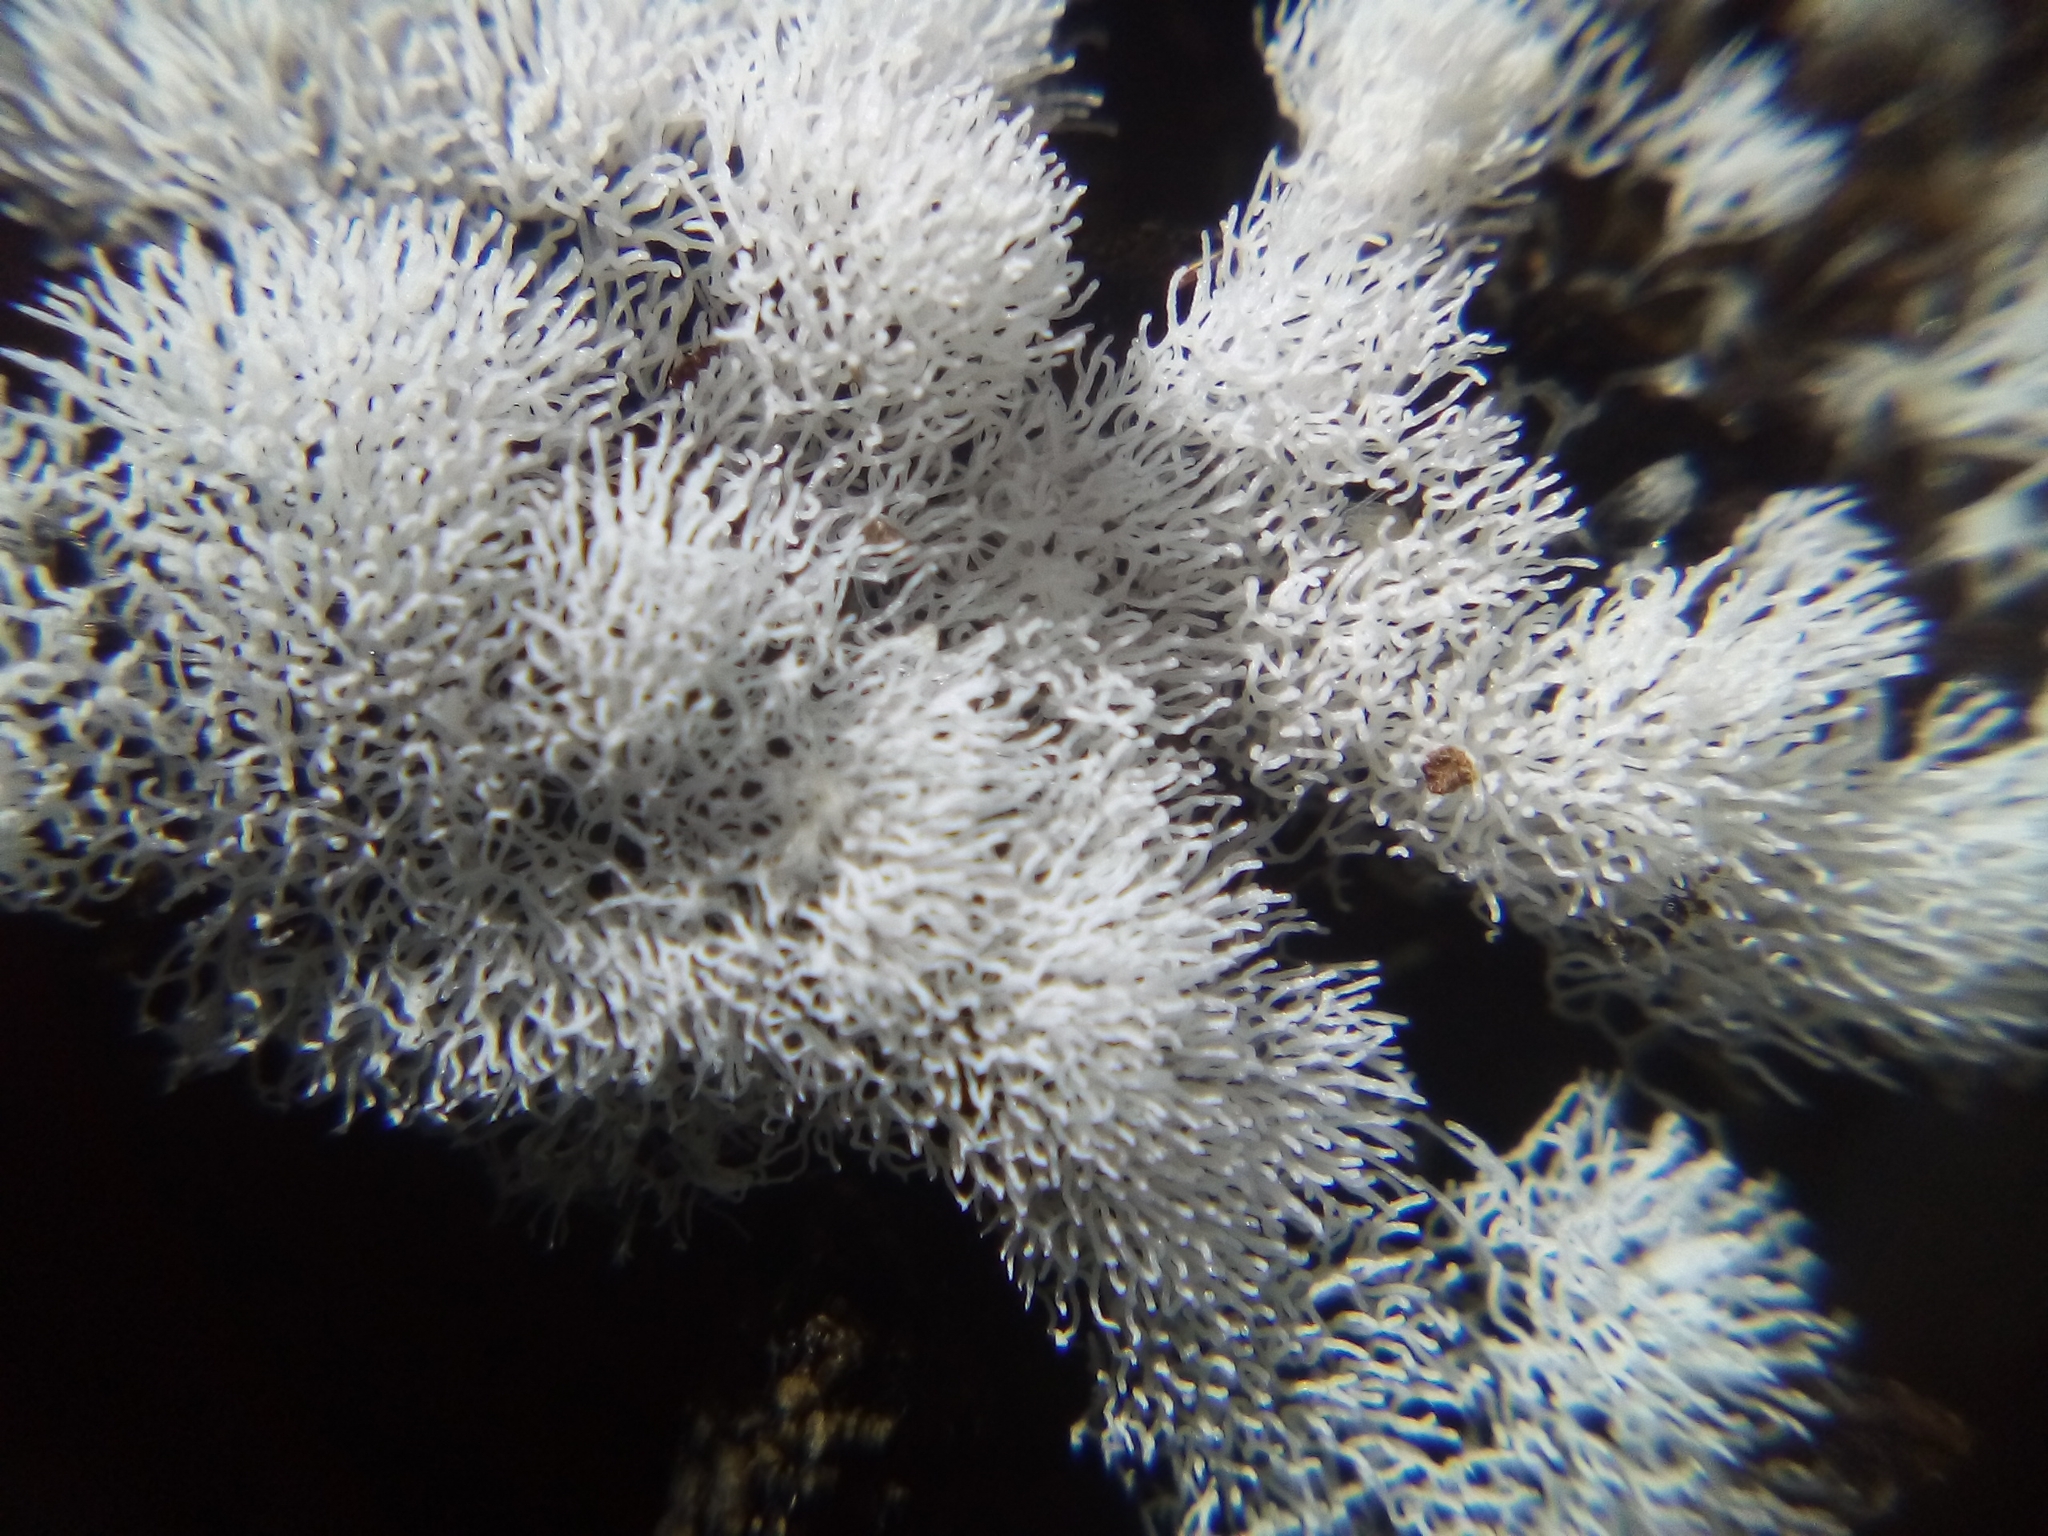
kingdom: Protozoa
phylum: Mycetozoa
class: Protosteliomycetes
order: Ceratiomyxales
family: Ceratiomyxaceae
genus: Ceratiomyxa
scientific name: Ceratiomyxa fruticulosa
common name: Honeycomb coral slime mold
